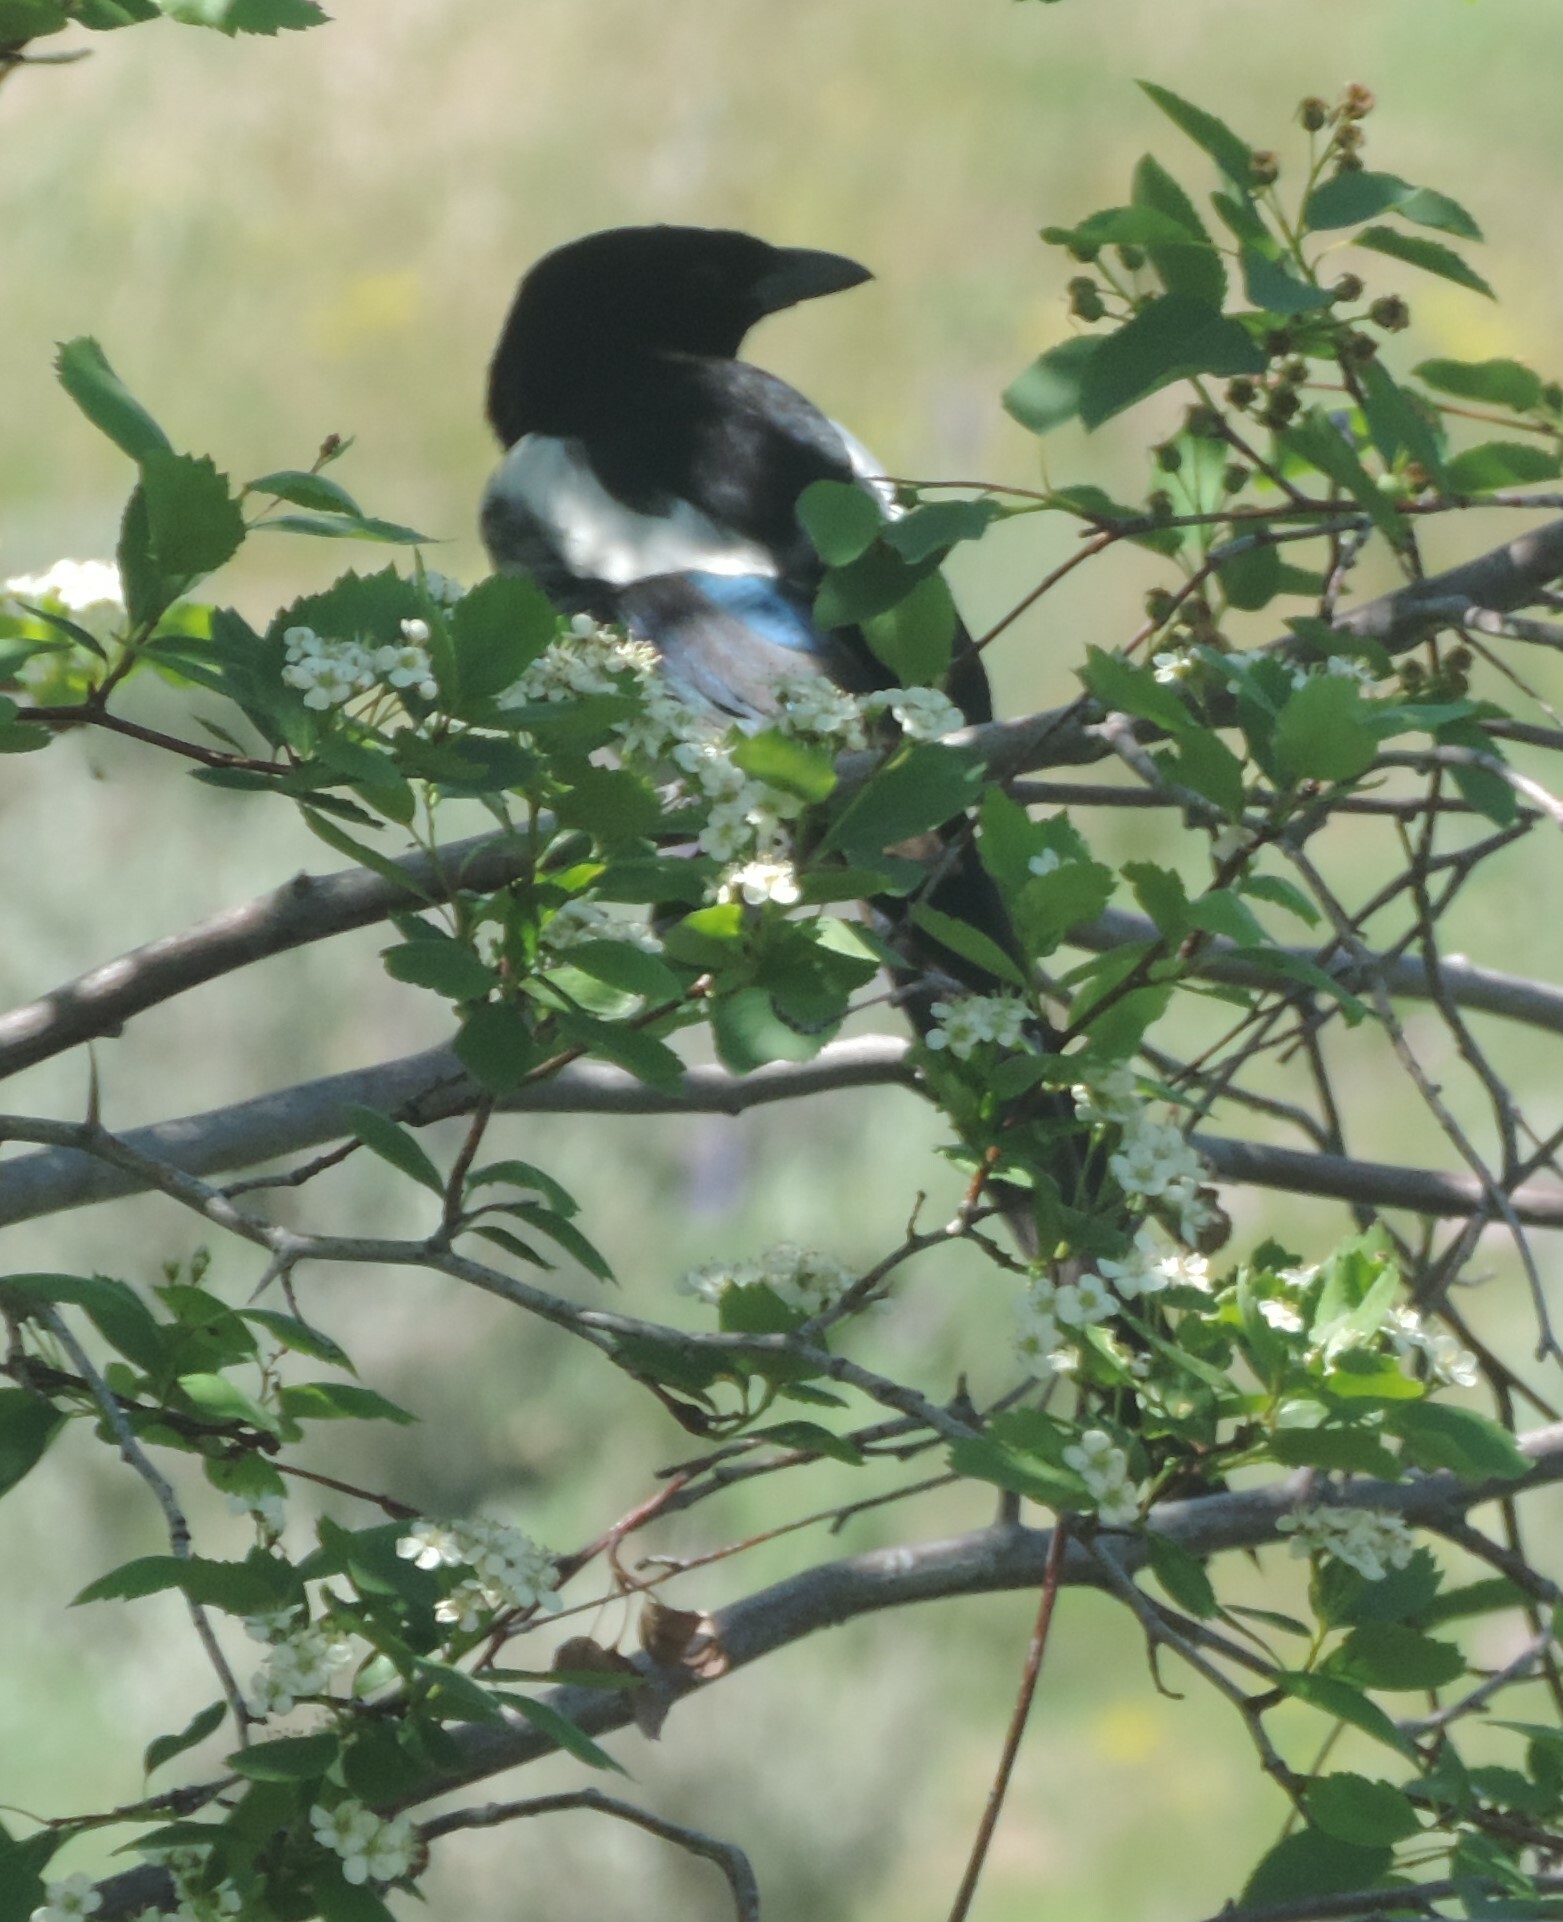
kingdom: Animalia
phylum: Chordata
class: Aves
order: Passeriformes
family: Corvidae
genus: Pica
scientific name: Pica hudsonia
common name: Black-billed magpie
